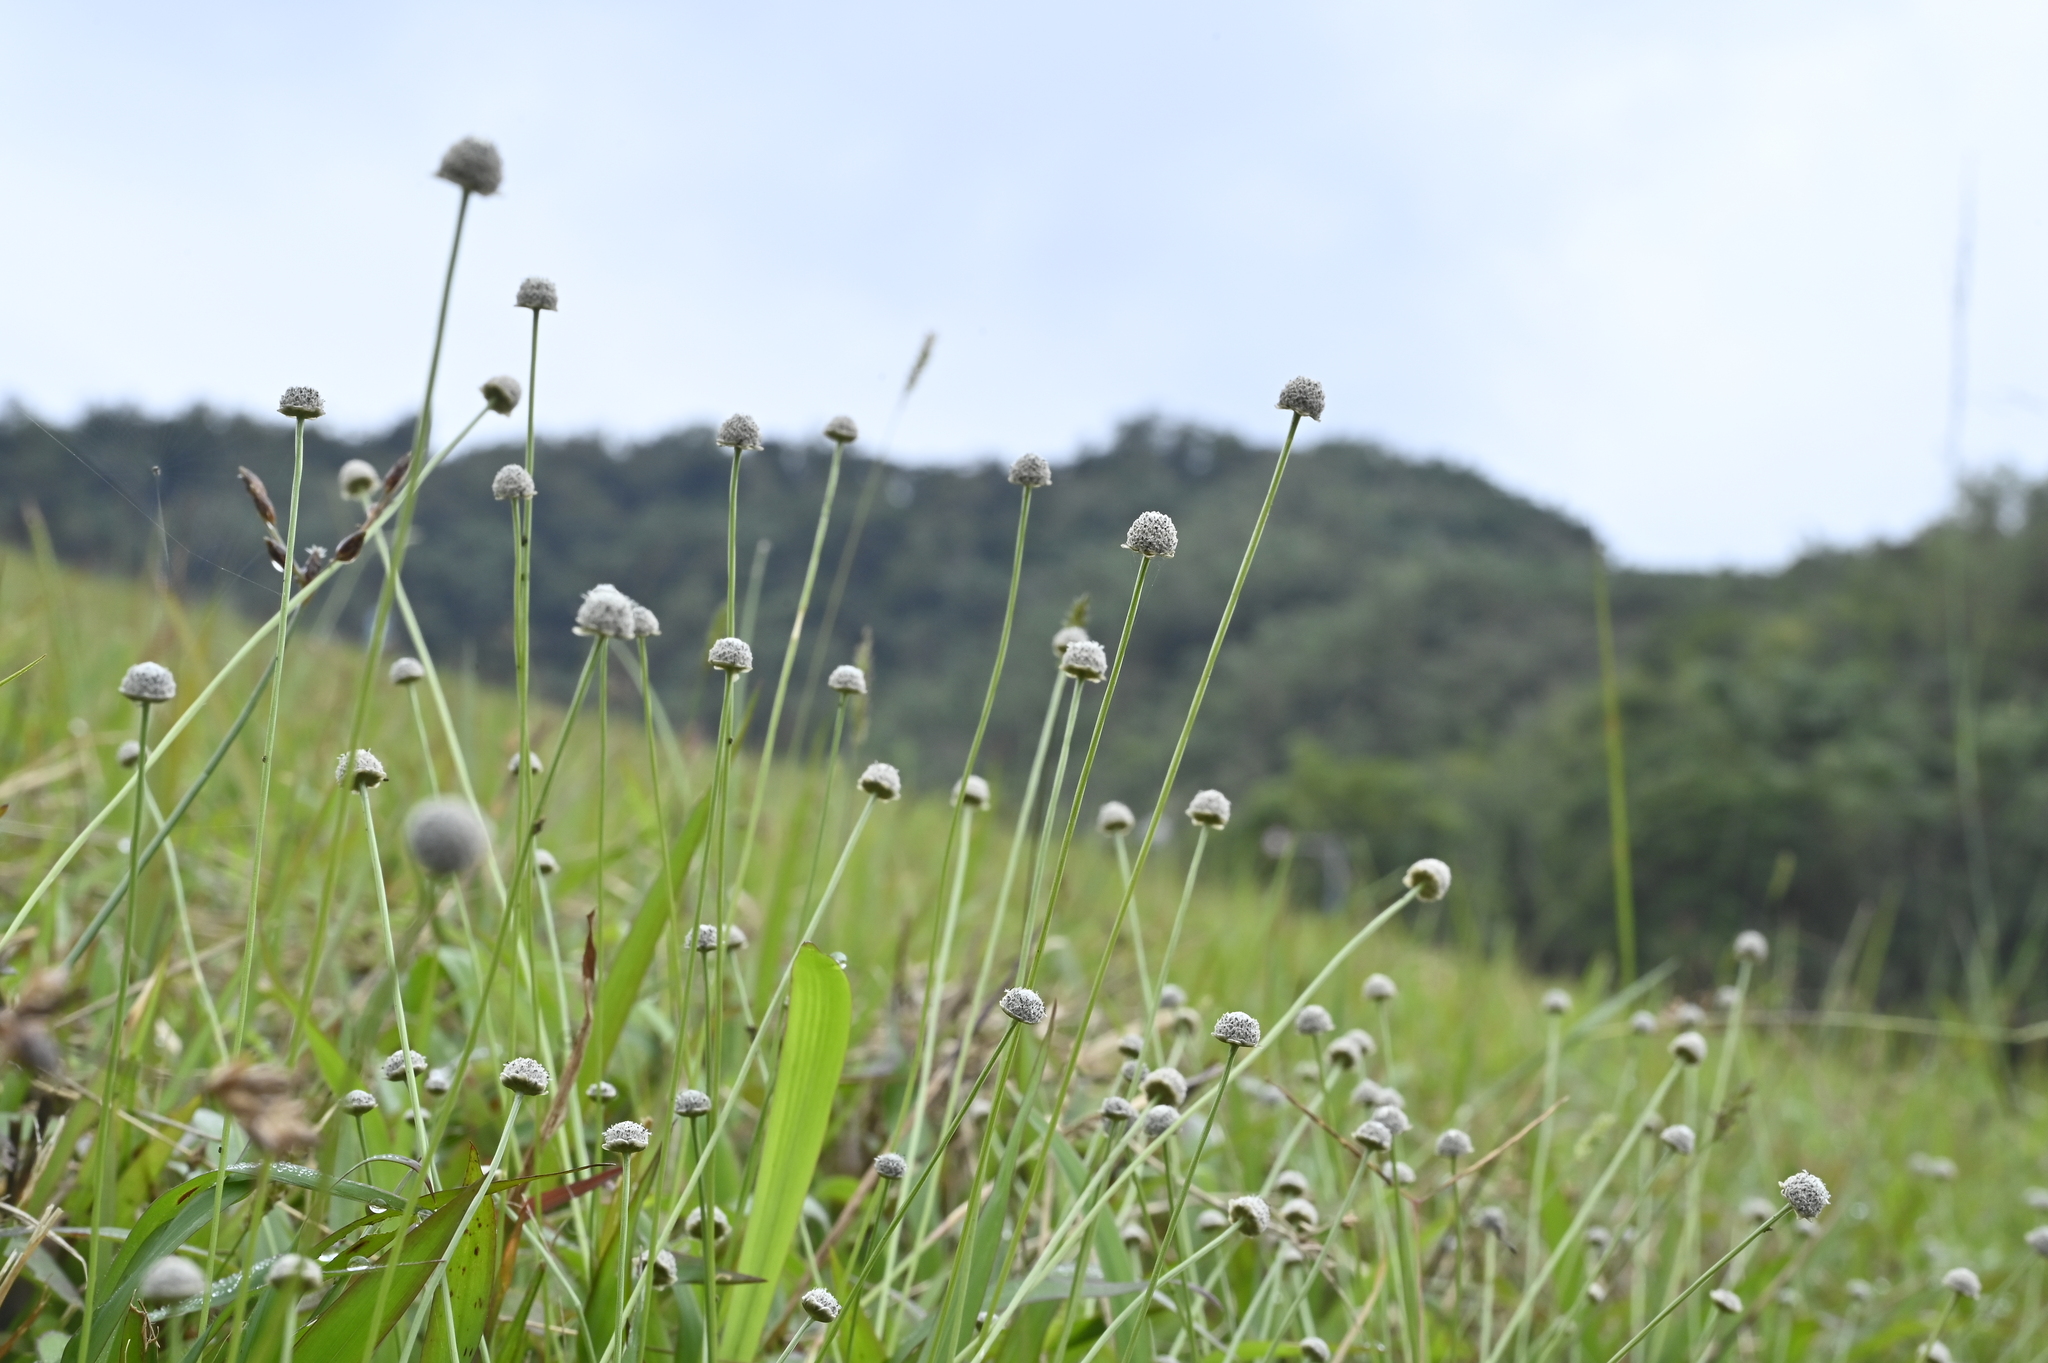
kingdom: Plantae
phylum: Tracheophyta
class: Liliopsida
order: Poales
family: Eriocaulaceae
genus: Eriocaulon
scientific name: Eriocaulon nantoense
